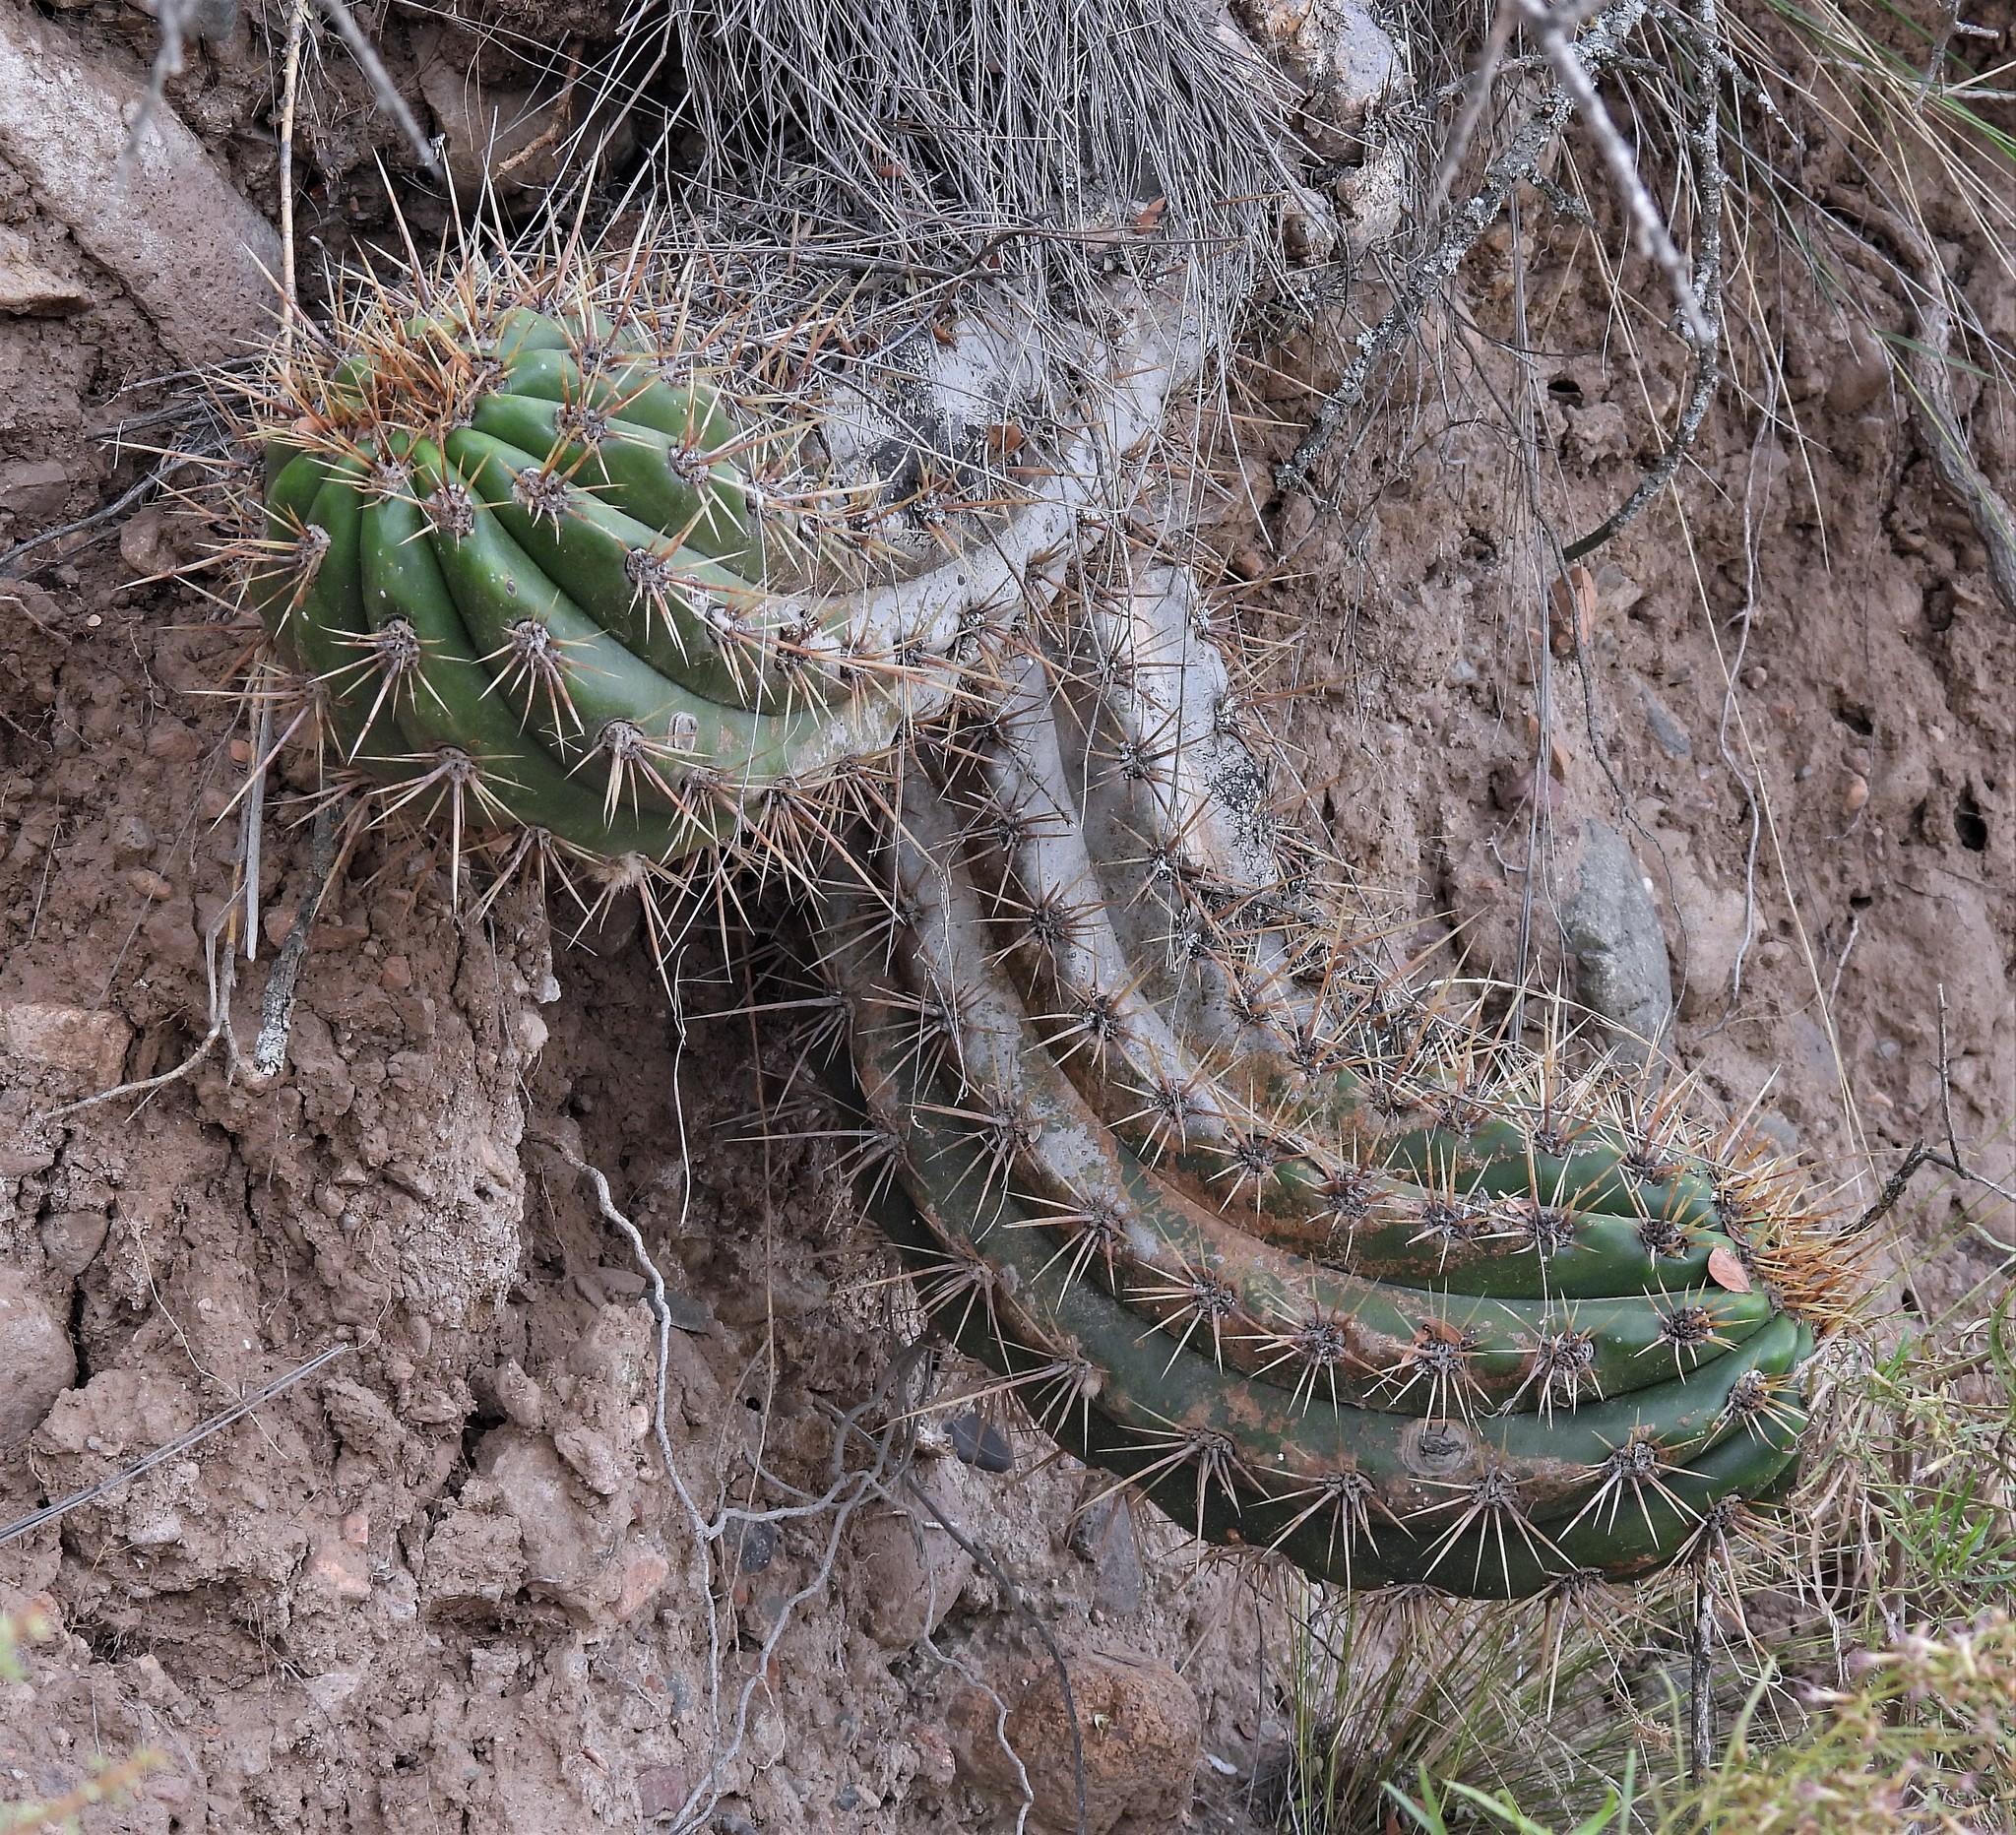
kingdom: Plantae
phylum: Tracheophyta
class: Magnoliopsida
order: Caryophyllales
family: Cactaceae
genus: Soehrensia
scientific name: Soehrensia candicans
